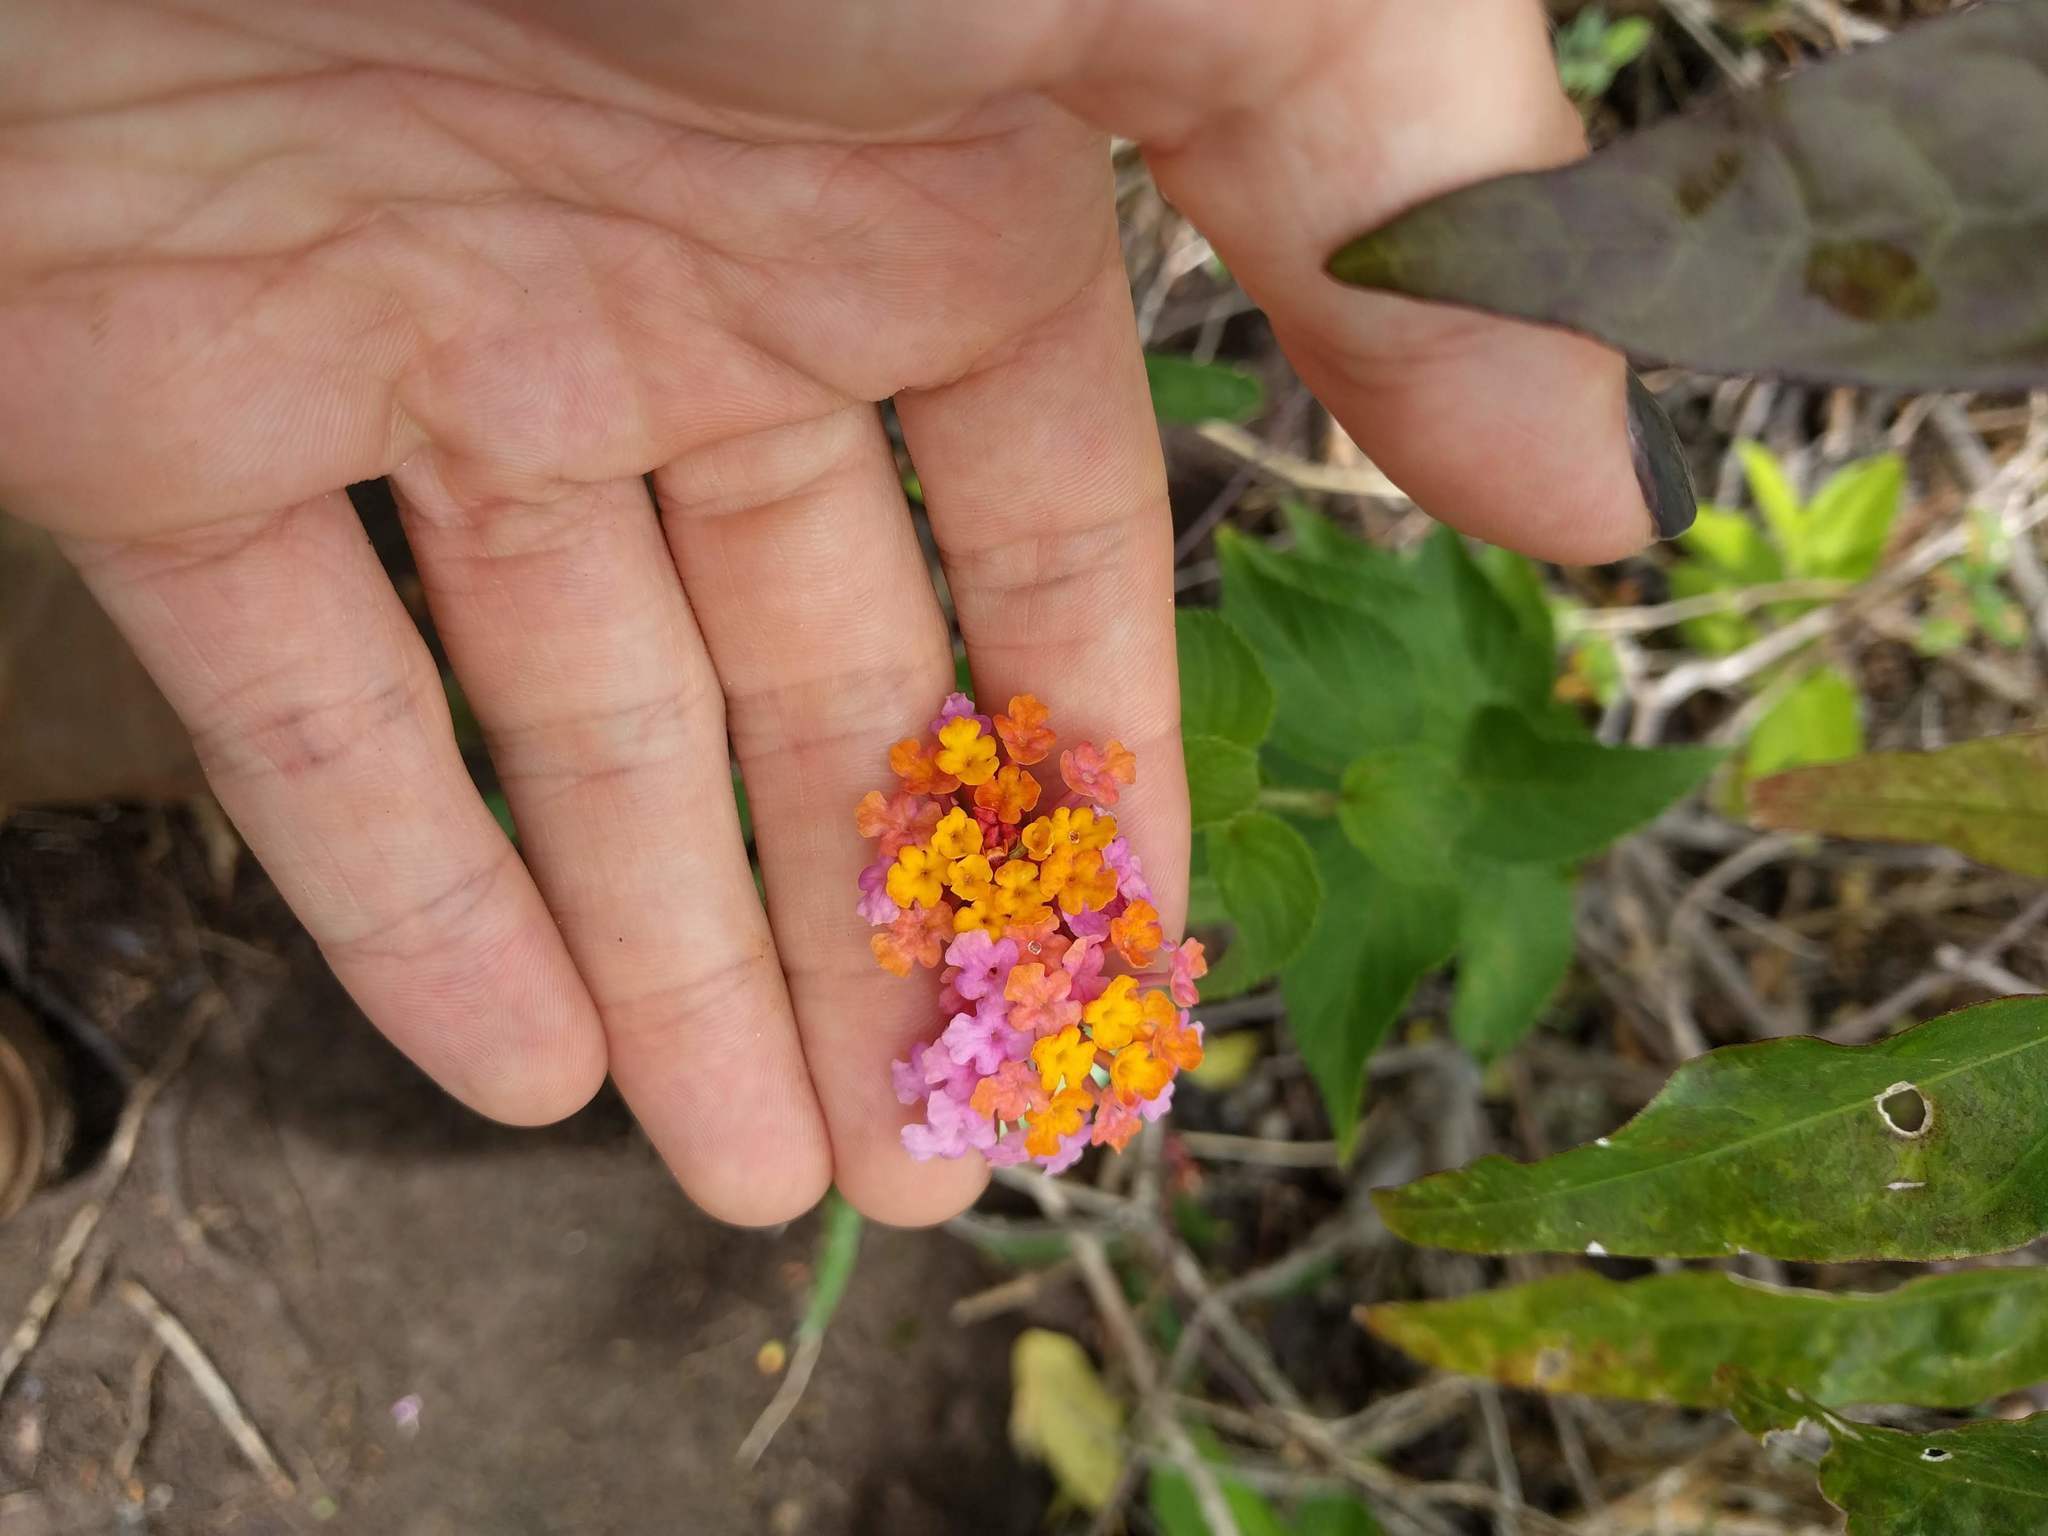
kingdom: Plantae
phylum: Tracheophyta
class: Magnoliopsida
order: Lamiales
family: Verbenaceae
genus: Lantana
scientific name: Lantana camara
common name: Lantana
